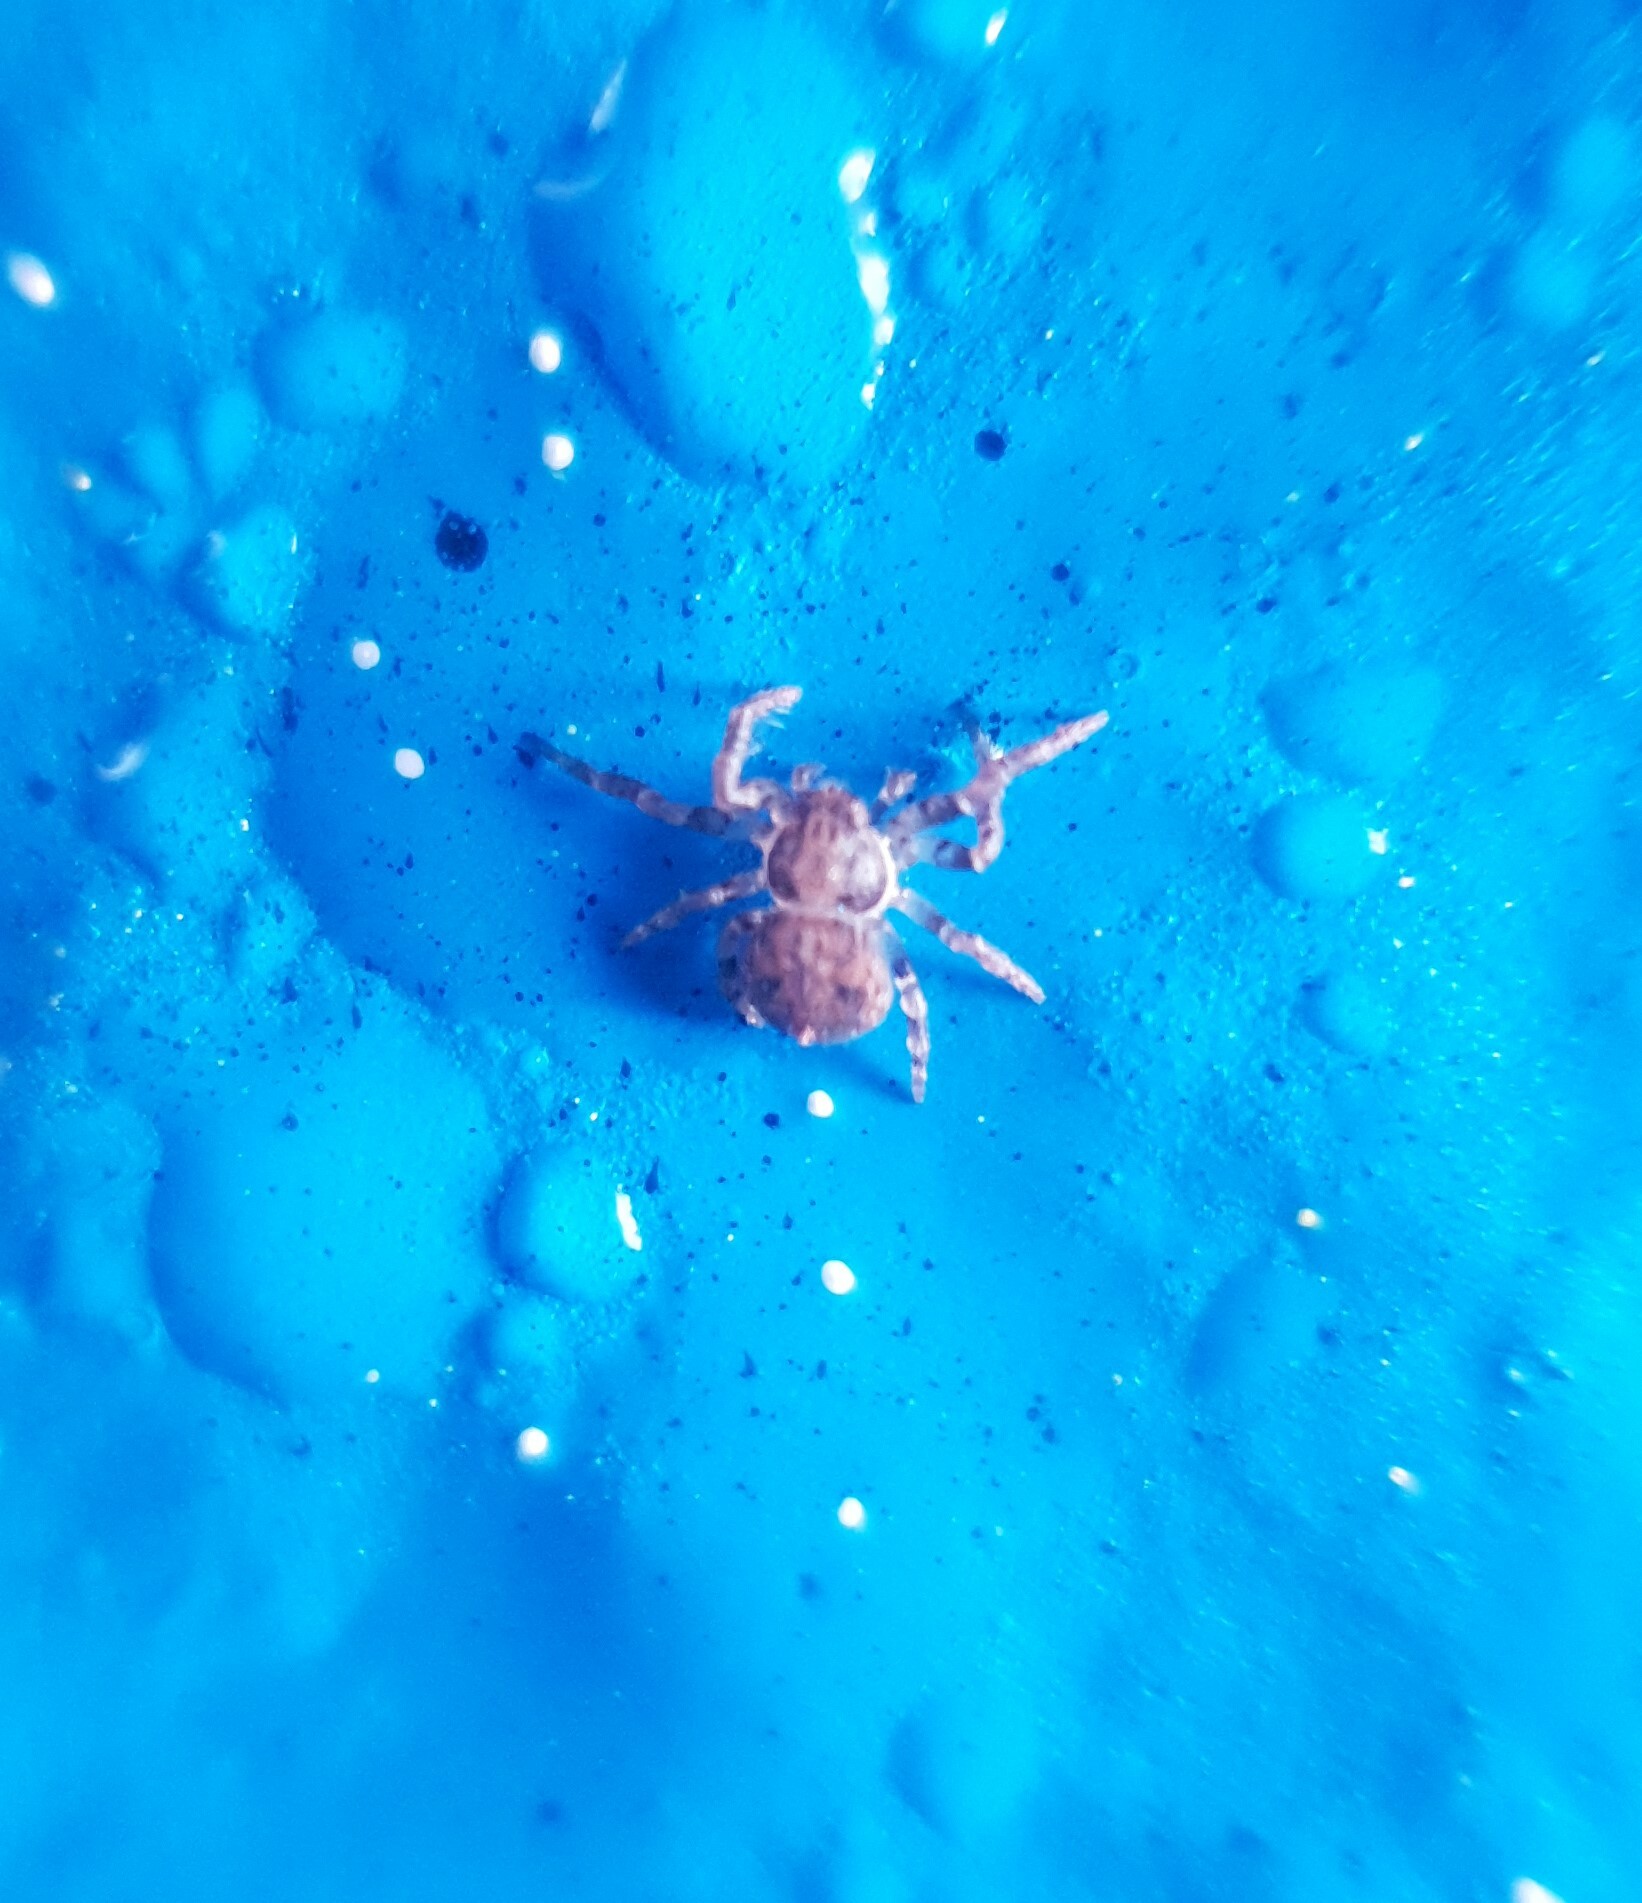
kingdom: Animalia
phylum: Arthropoda
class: Arachnida
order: Araneae
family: Thomisidae
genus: Ozyptila
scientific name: Ozyptila
